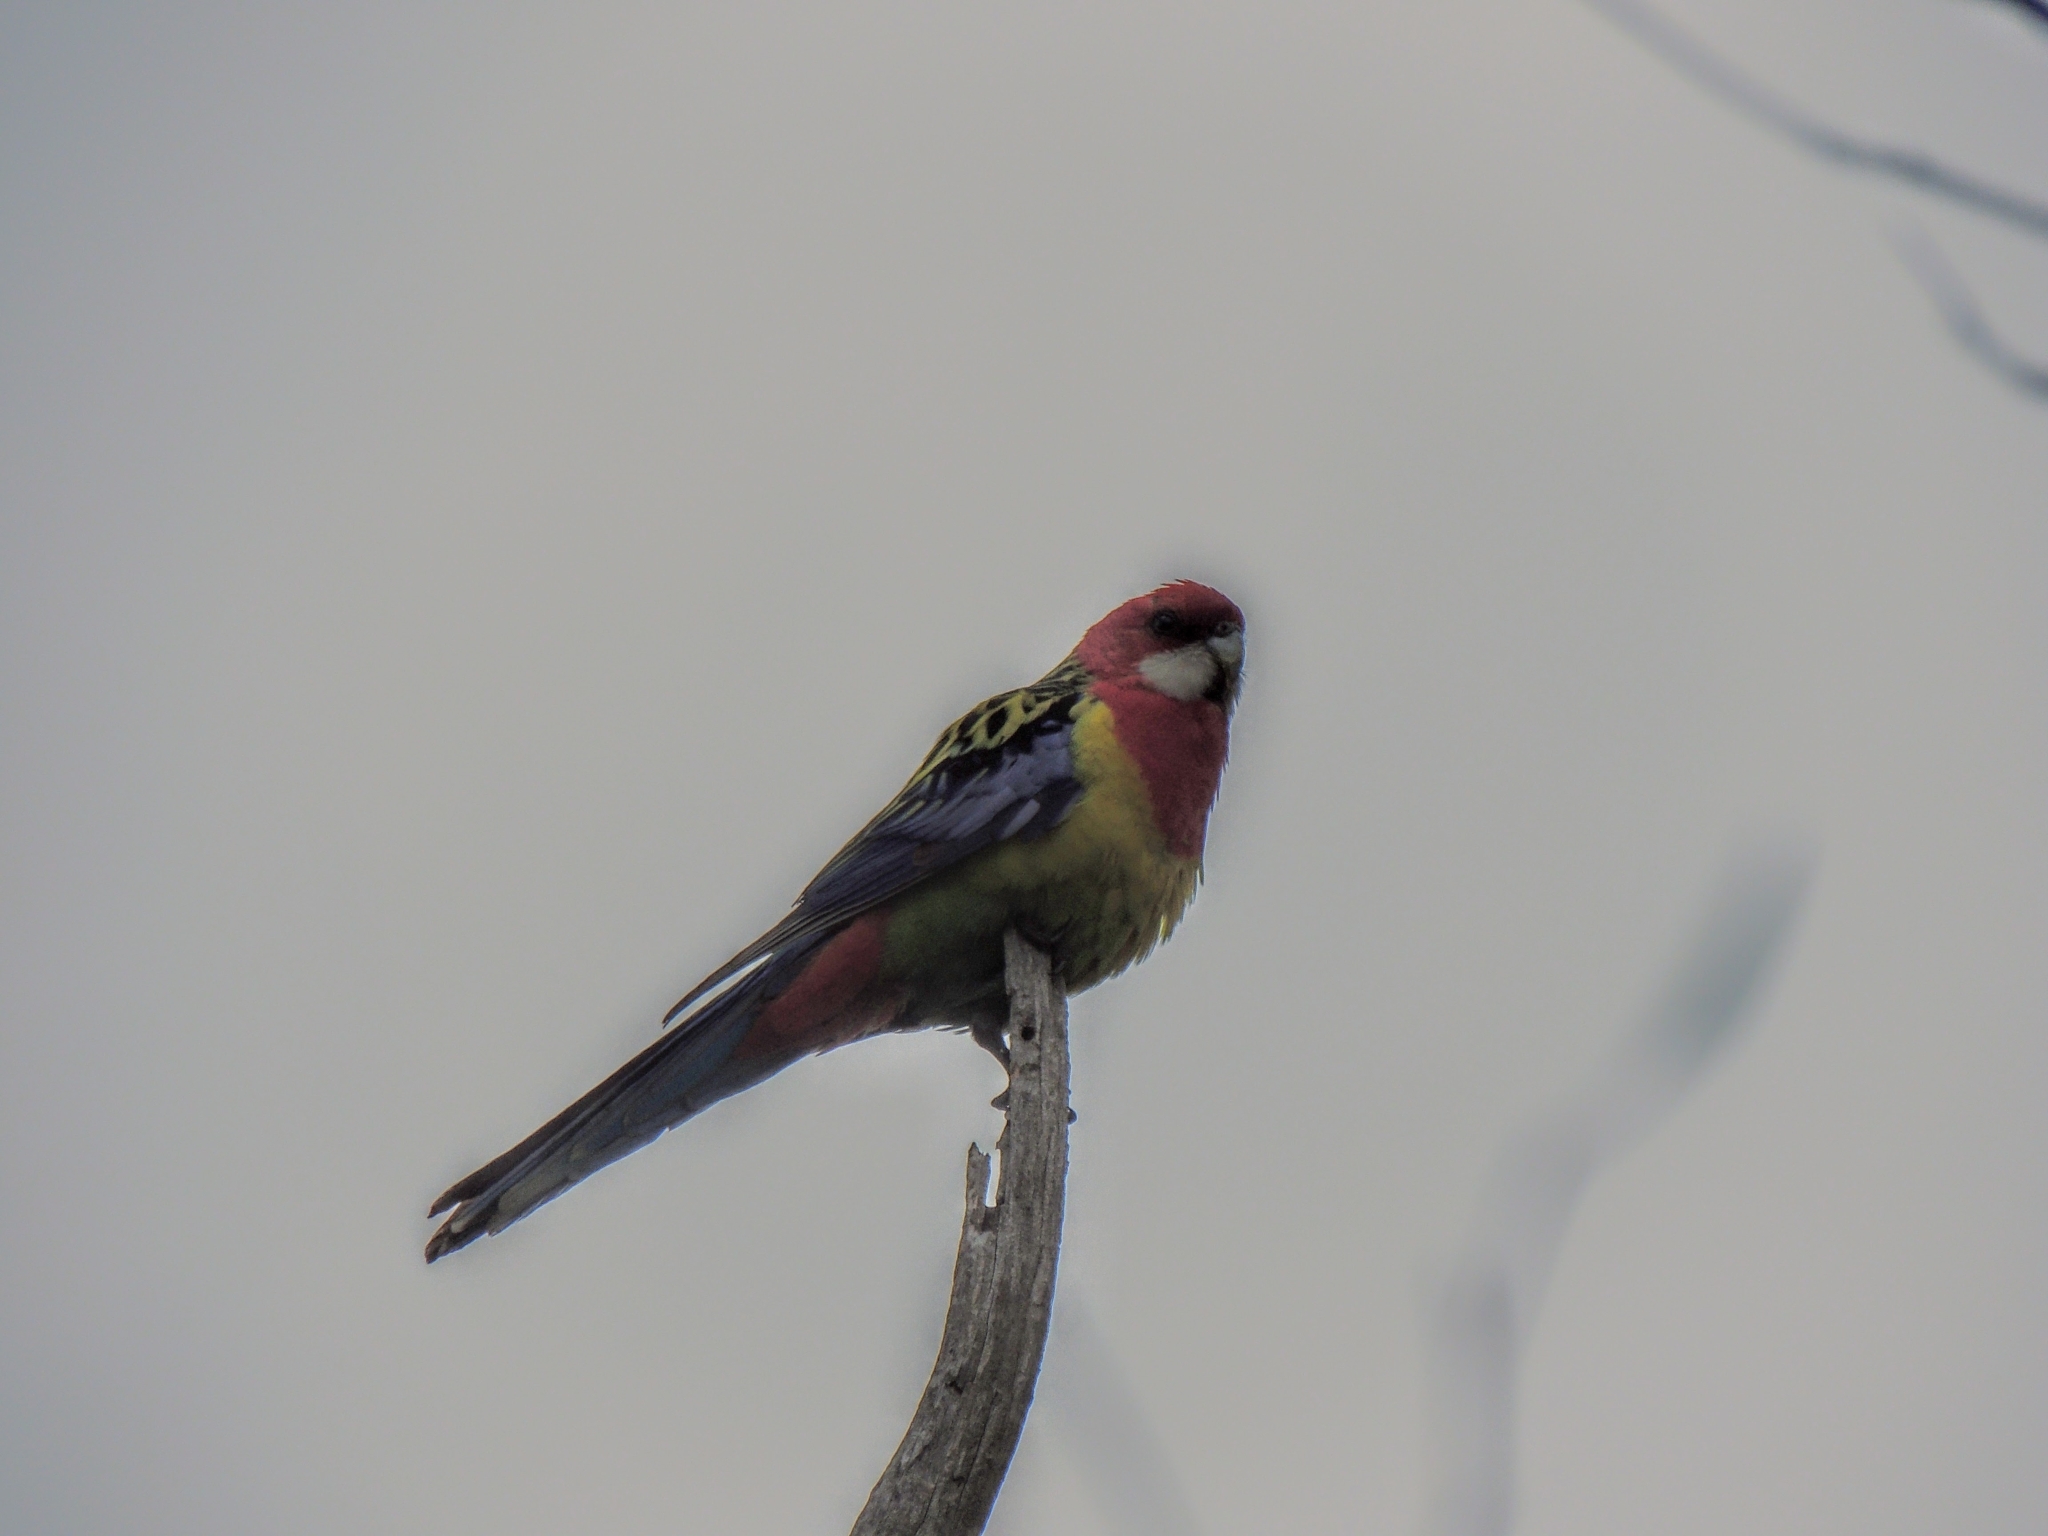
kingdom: Animalia
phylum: Chordata
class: Aves
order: Psittaciformes
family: Psittacidae
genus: Platycercus
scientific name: Platycercus eximius
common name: Eastern rosella
